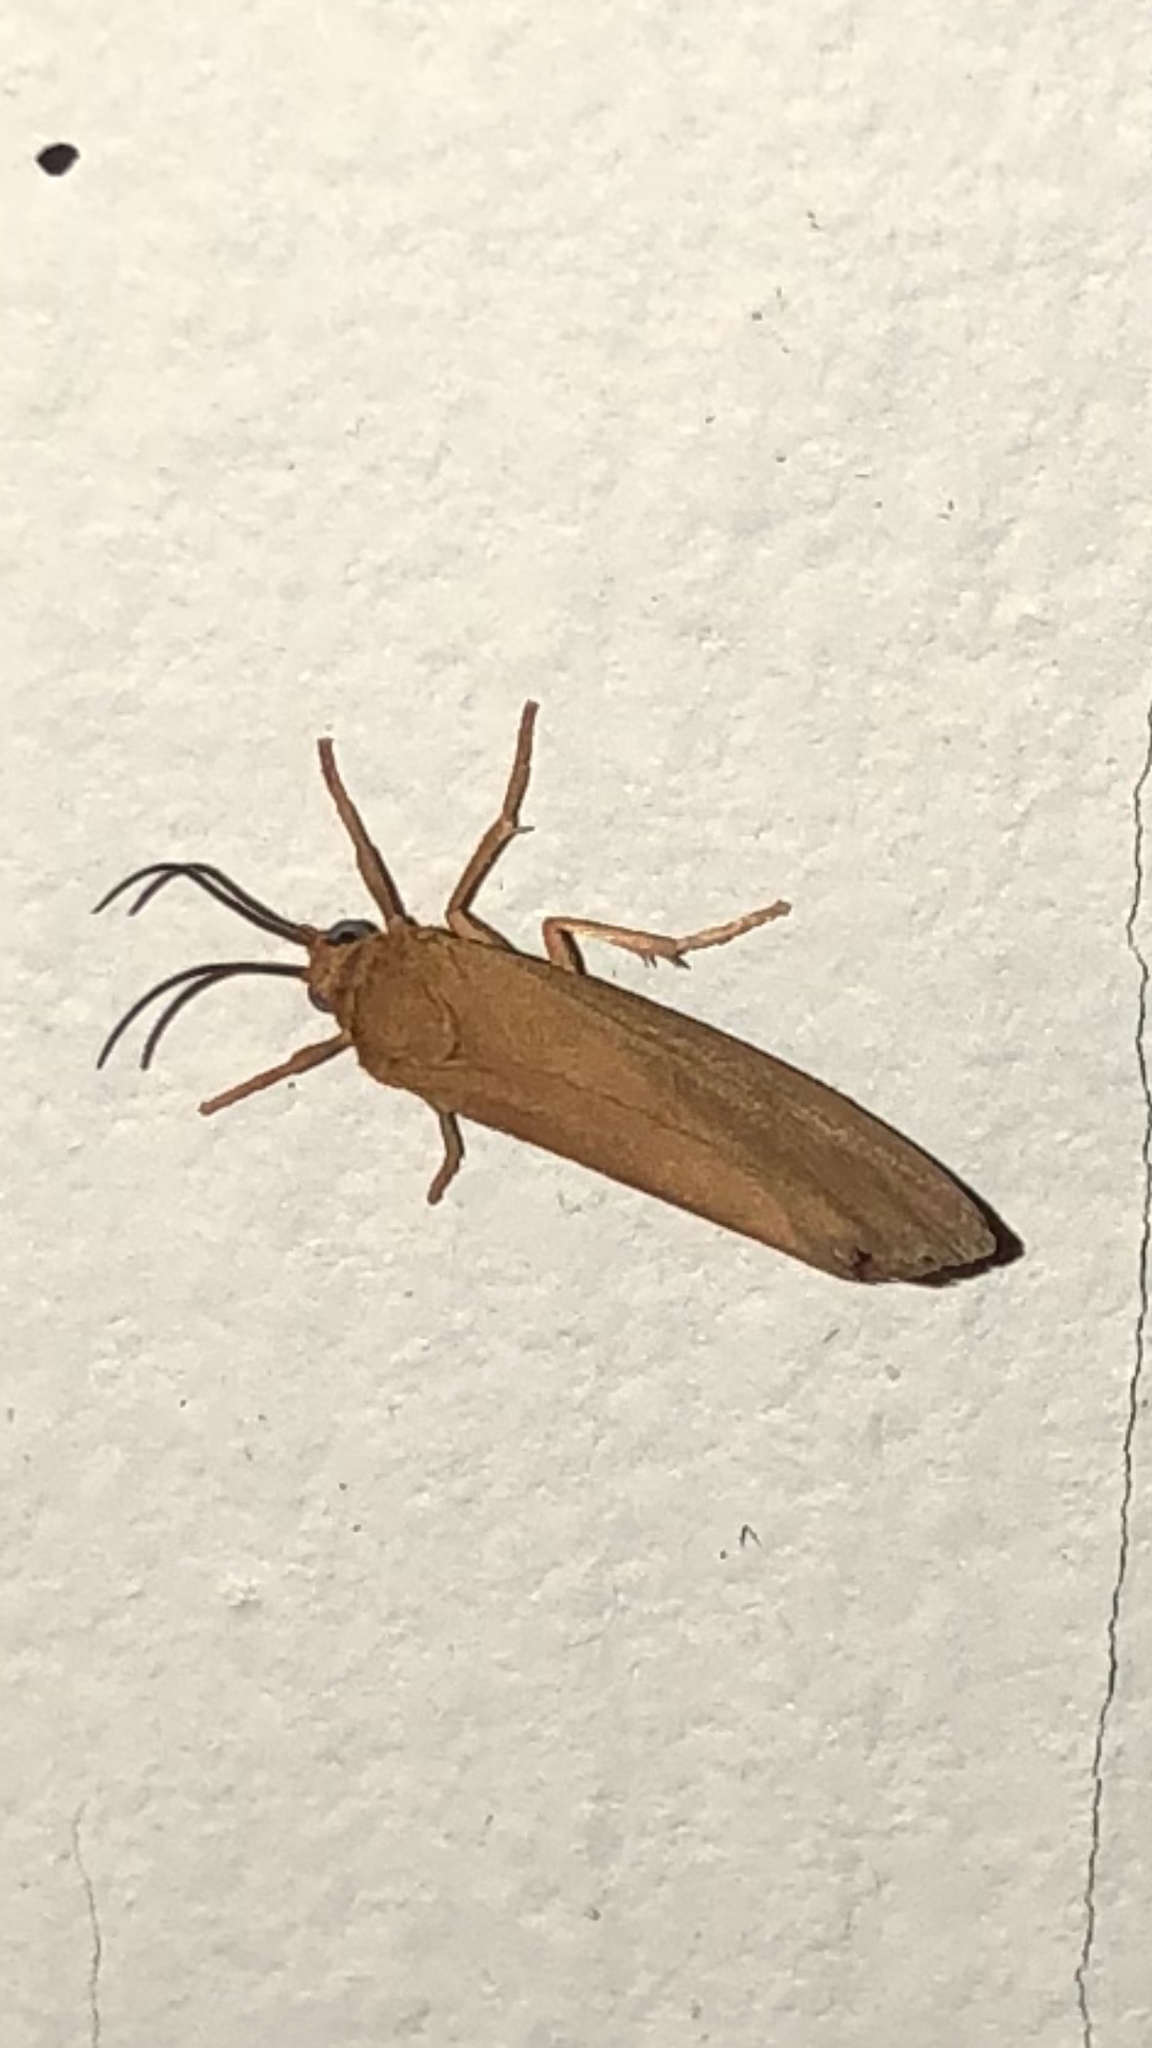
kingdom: Animalia
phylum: Arthropoda
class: Insecta
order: Lepidoptera
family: Erebidae
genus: Virbia
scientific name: Virbia aurantiaca
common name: Orange virbia moth
